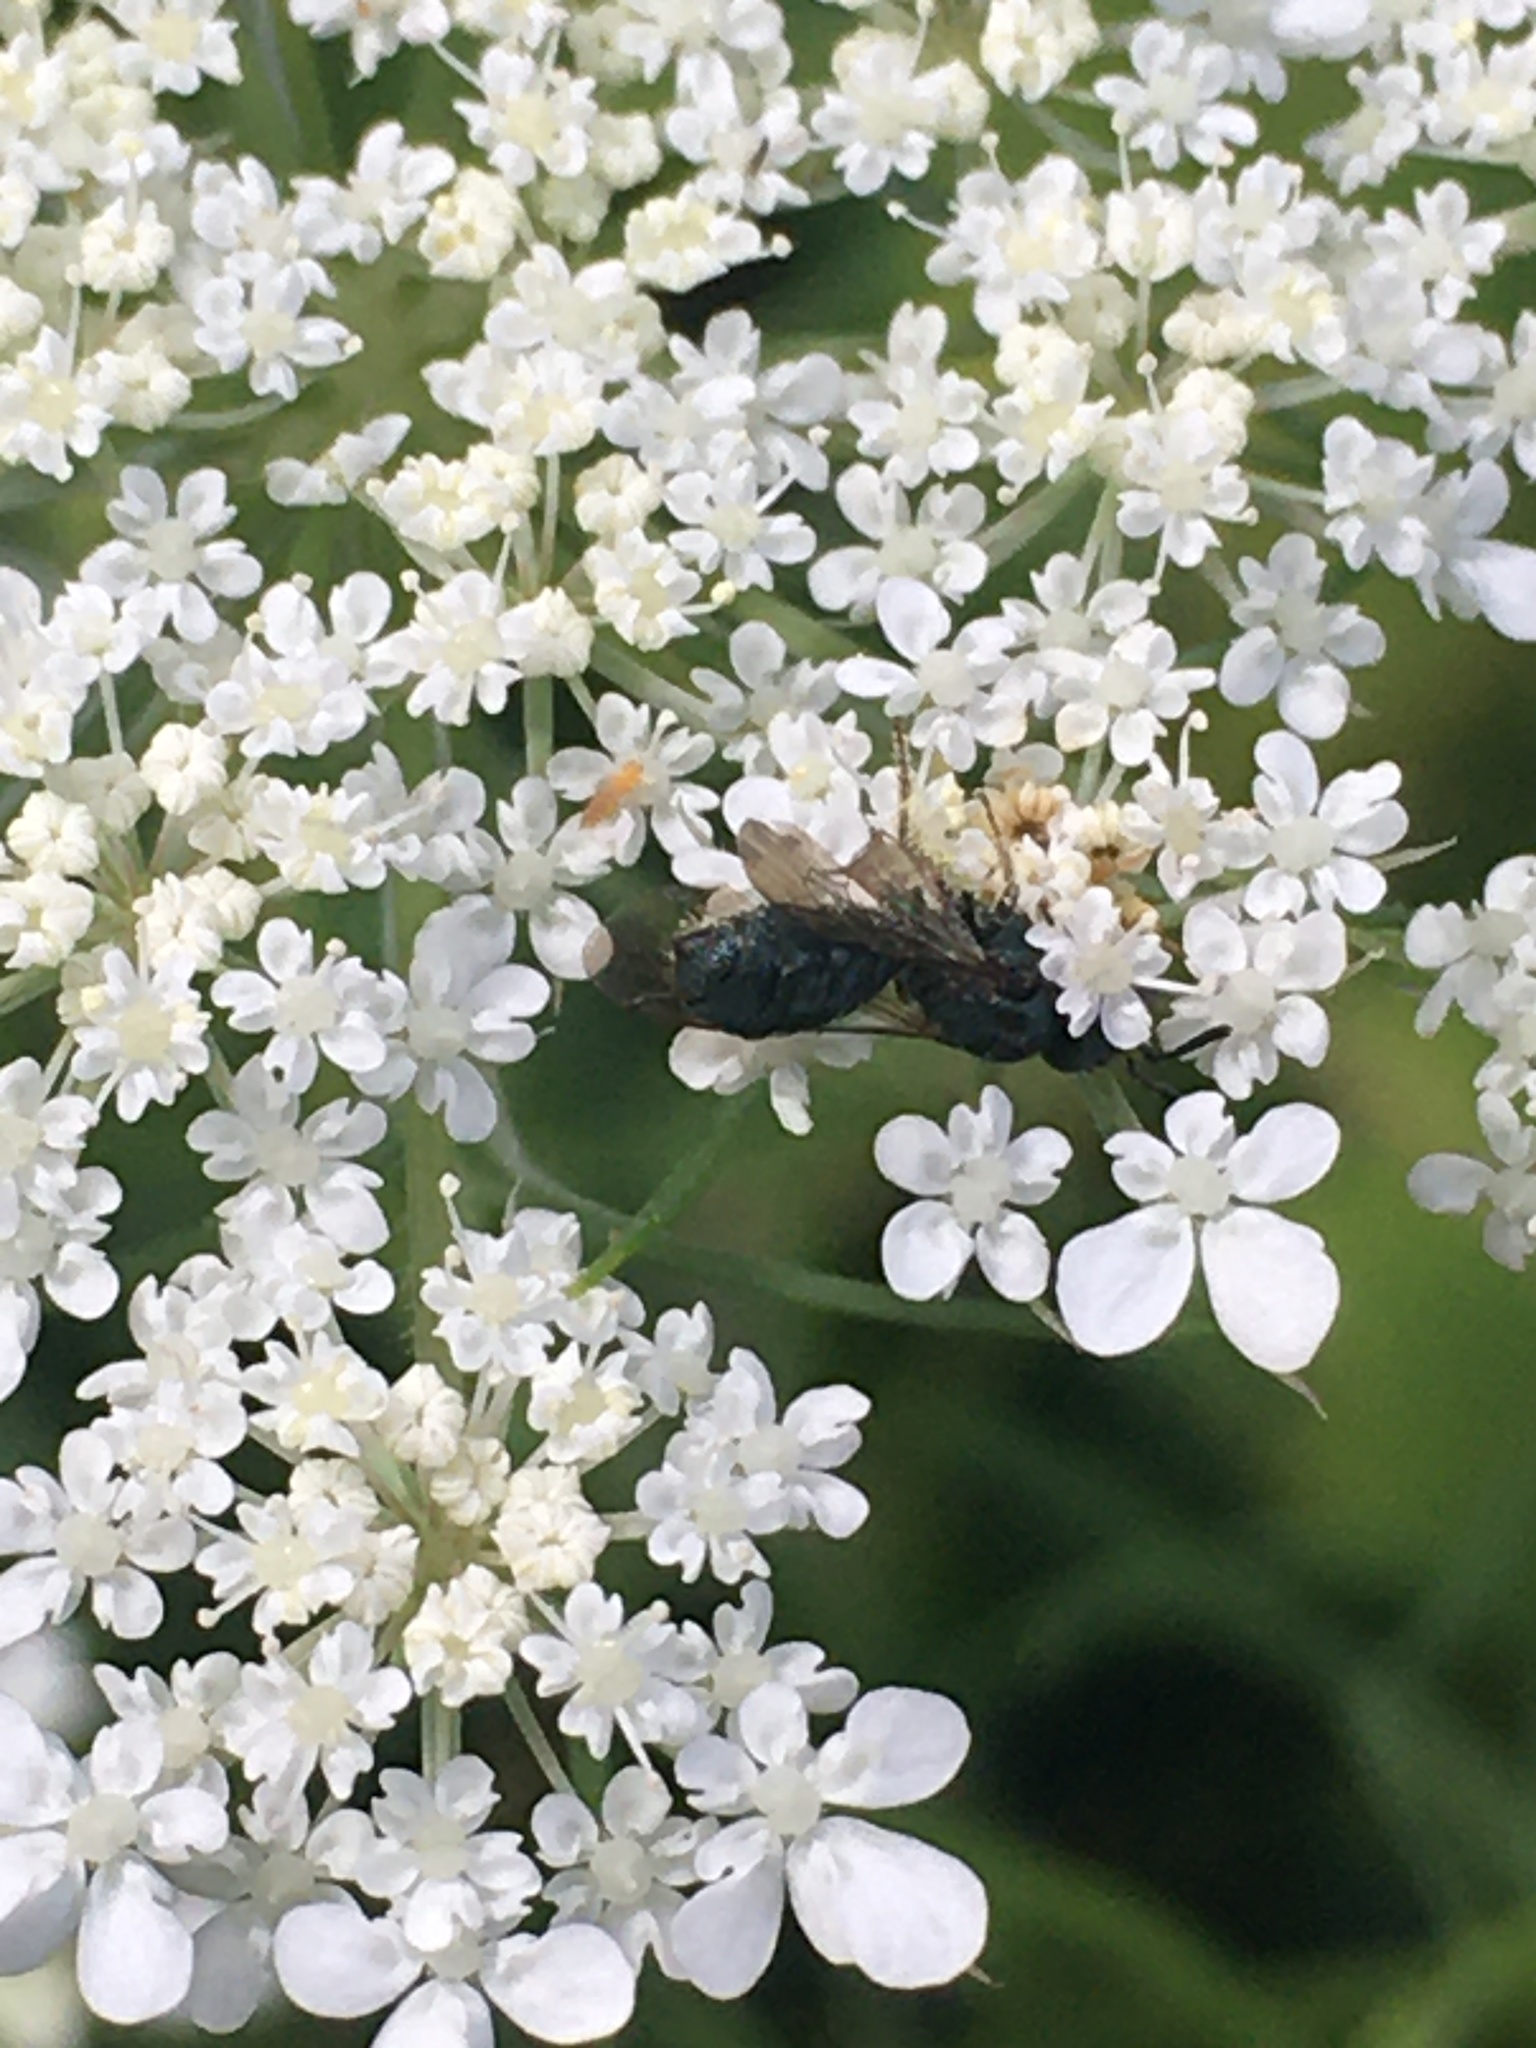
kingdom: Animalia
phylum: Arthropoda
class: Insecta
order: Hymenoptera
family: Apidae
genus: Zadontomerus
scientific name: Zadontomerus
